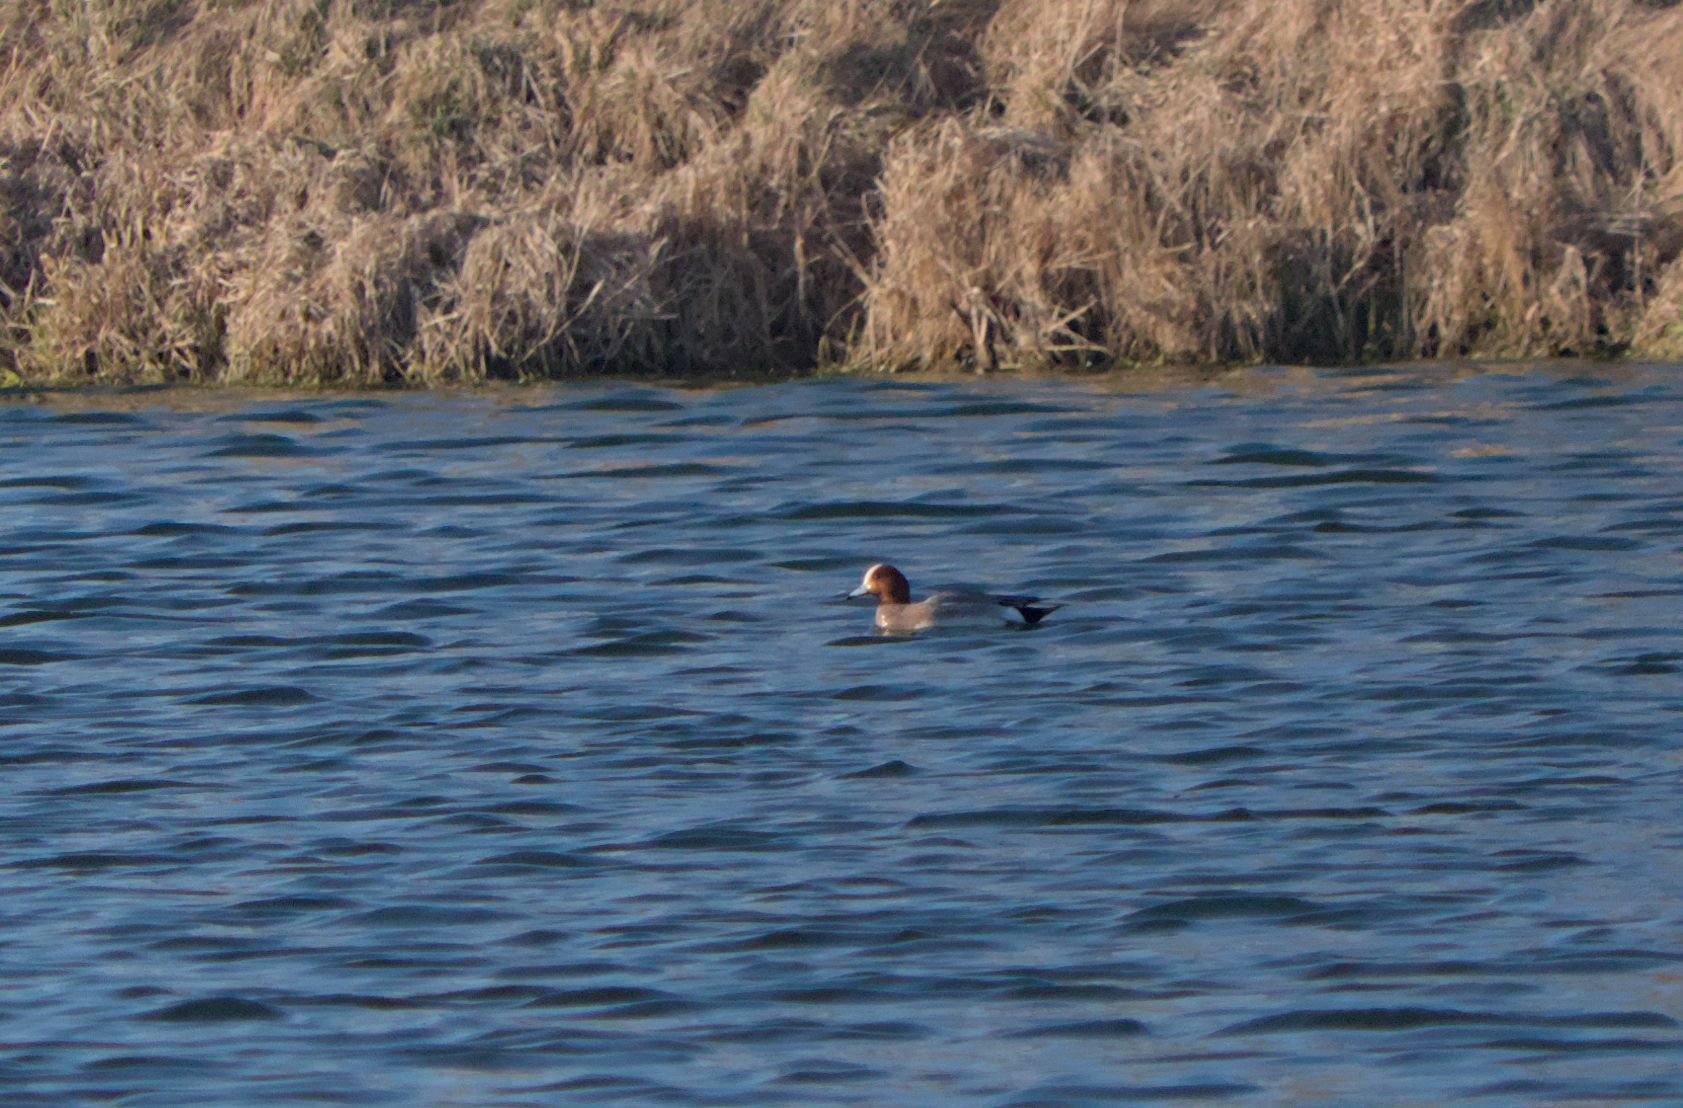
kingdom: Animalia
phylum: Chordata
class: Aves
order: Anseriformes
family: Anatidae
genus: Mareca
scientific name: Mareca penelope
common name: Eurasian wigeon
